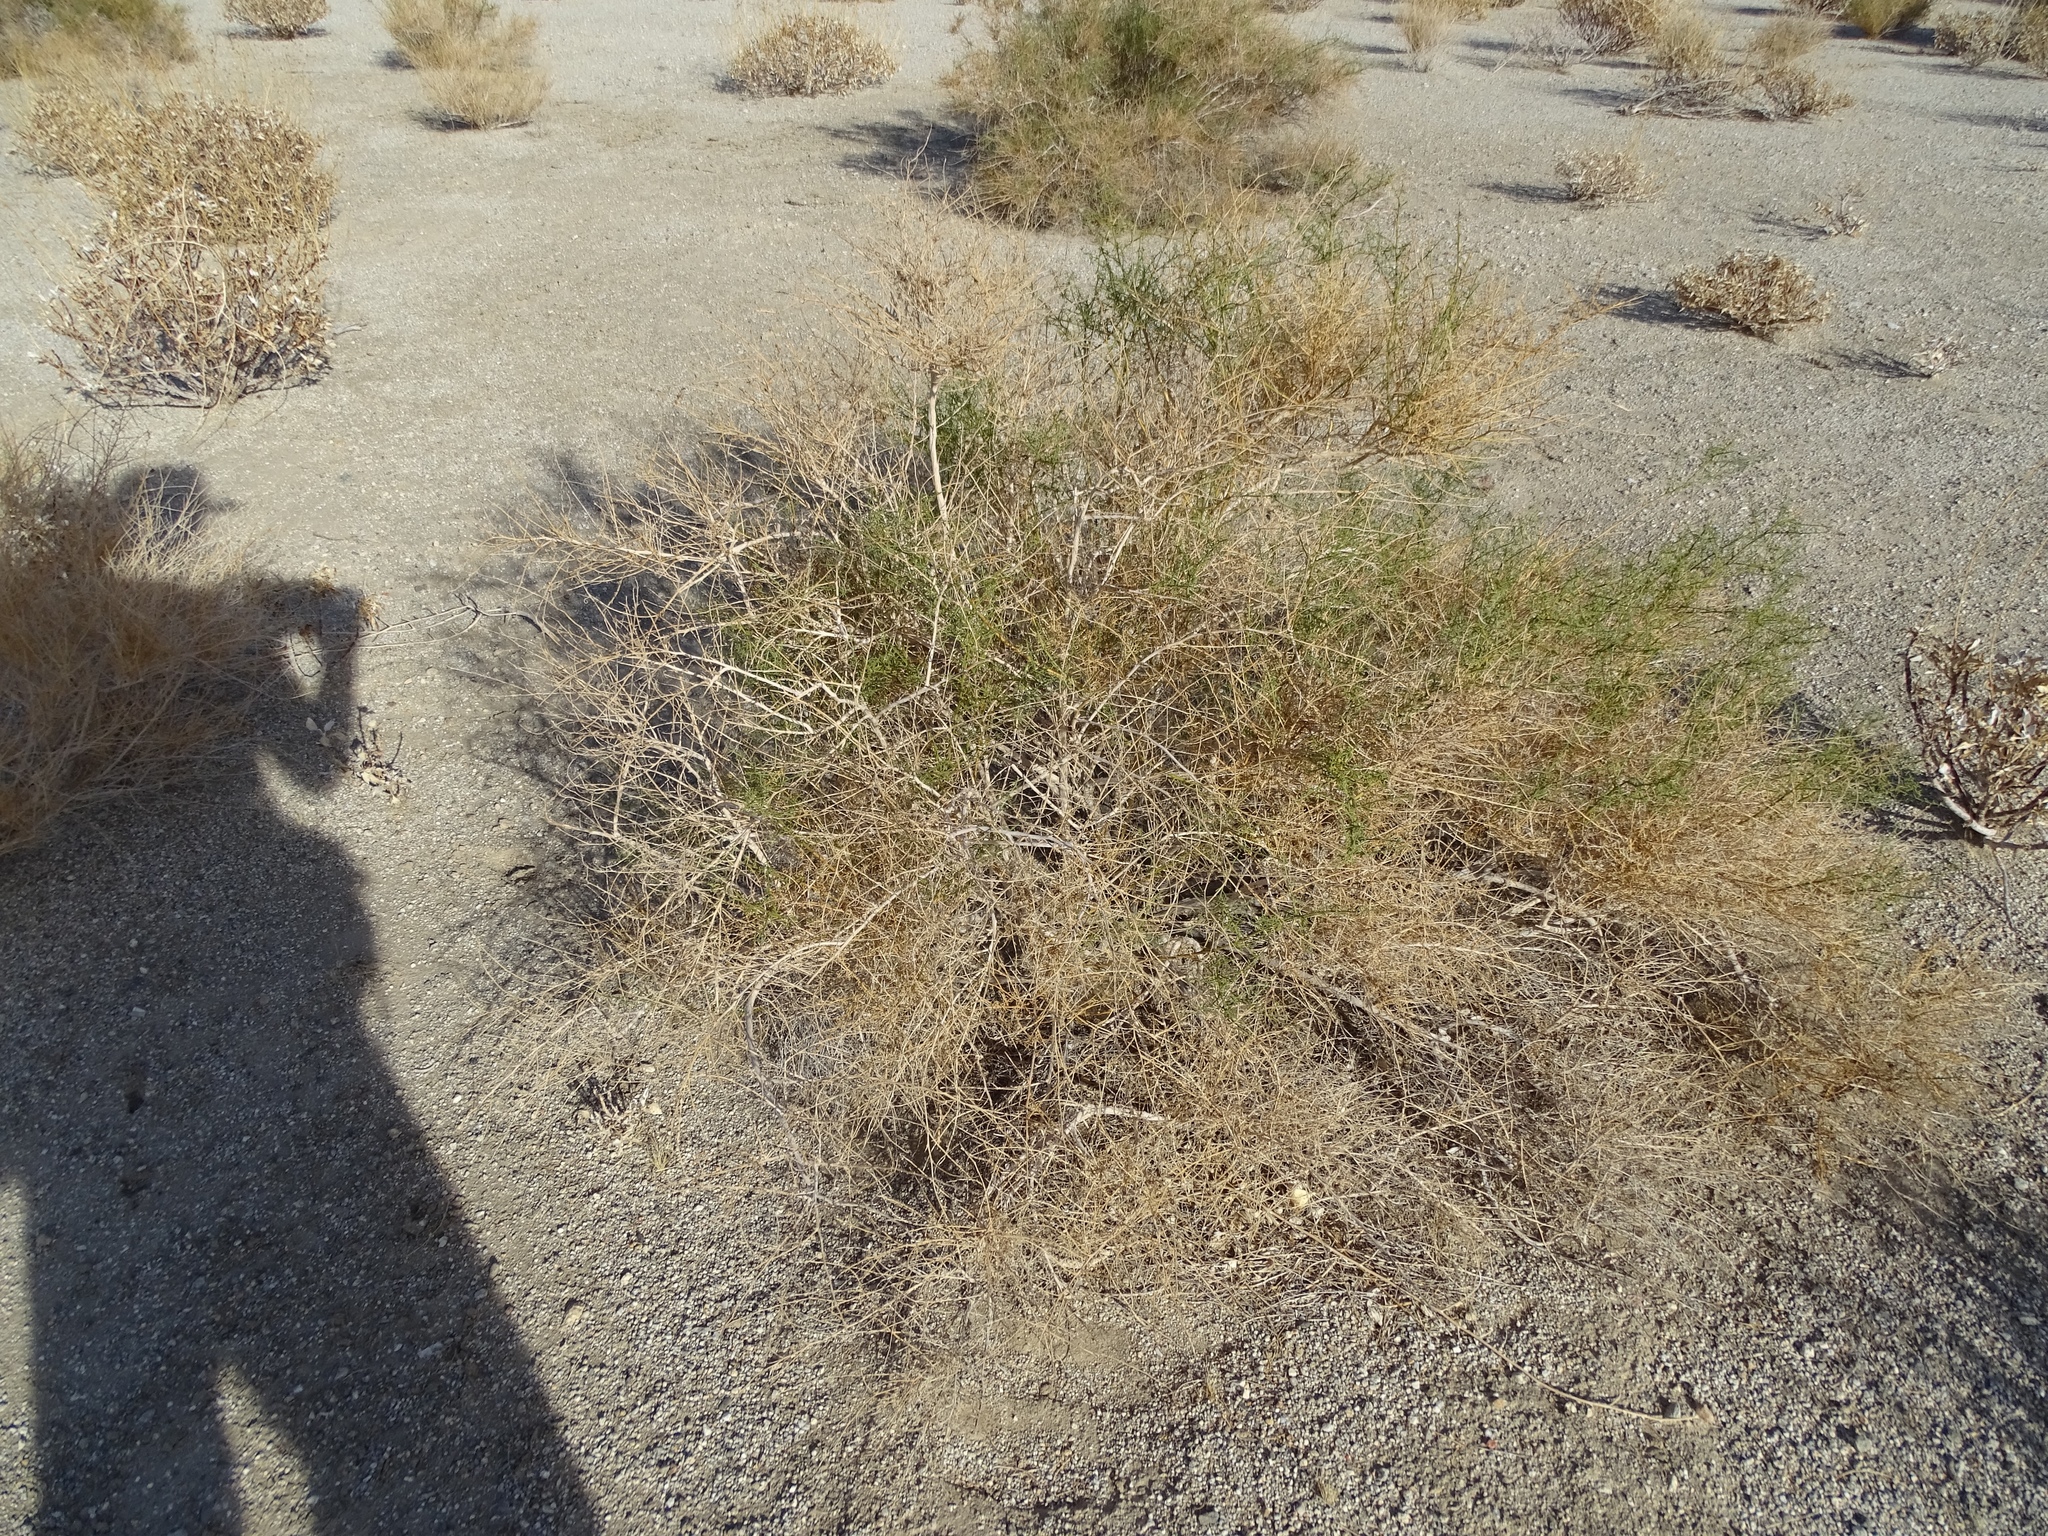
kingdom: Plantae
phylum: Tracheophyta
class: Magnoliopsida
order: Asterales
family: Asteraceae
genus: Ambrosia
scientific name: Ambrosia salsola
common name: Burrobrush
